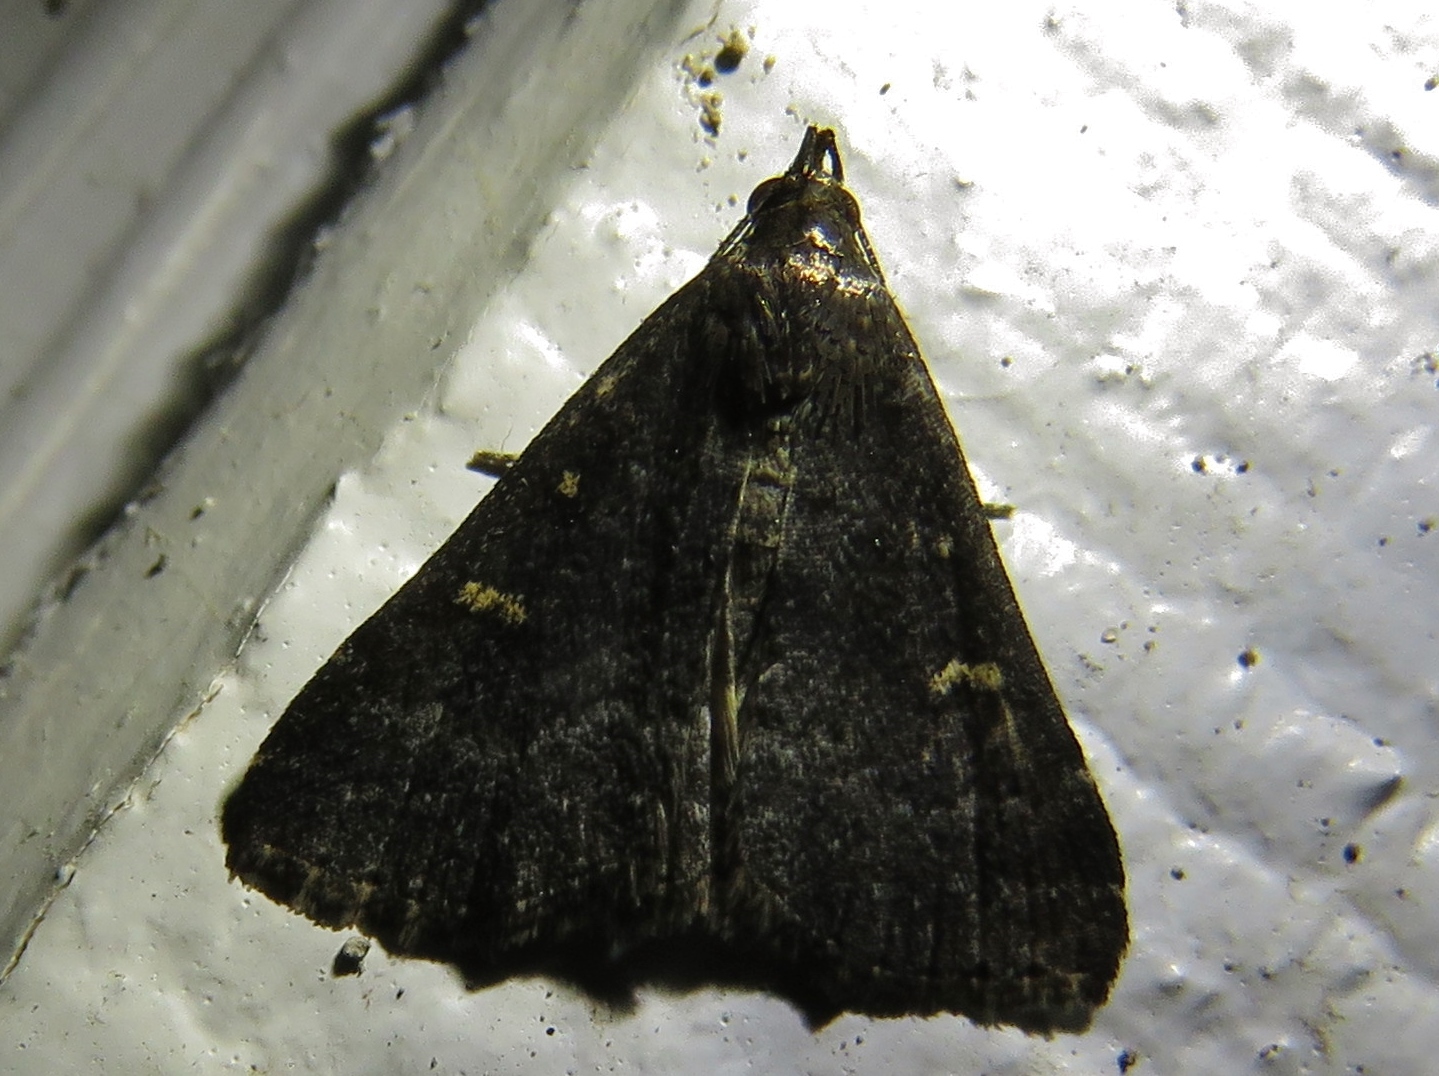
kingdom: Animalia
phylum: Arthropoda
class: Insecta
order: Lepidoptera
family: Erebidae
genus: Tetanolita
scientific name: Tetanolita mynesalis
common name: Smoky tetanolita moth
